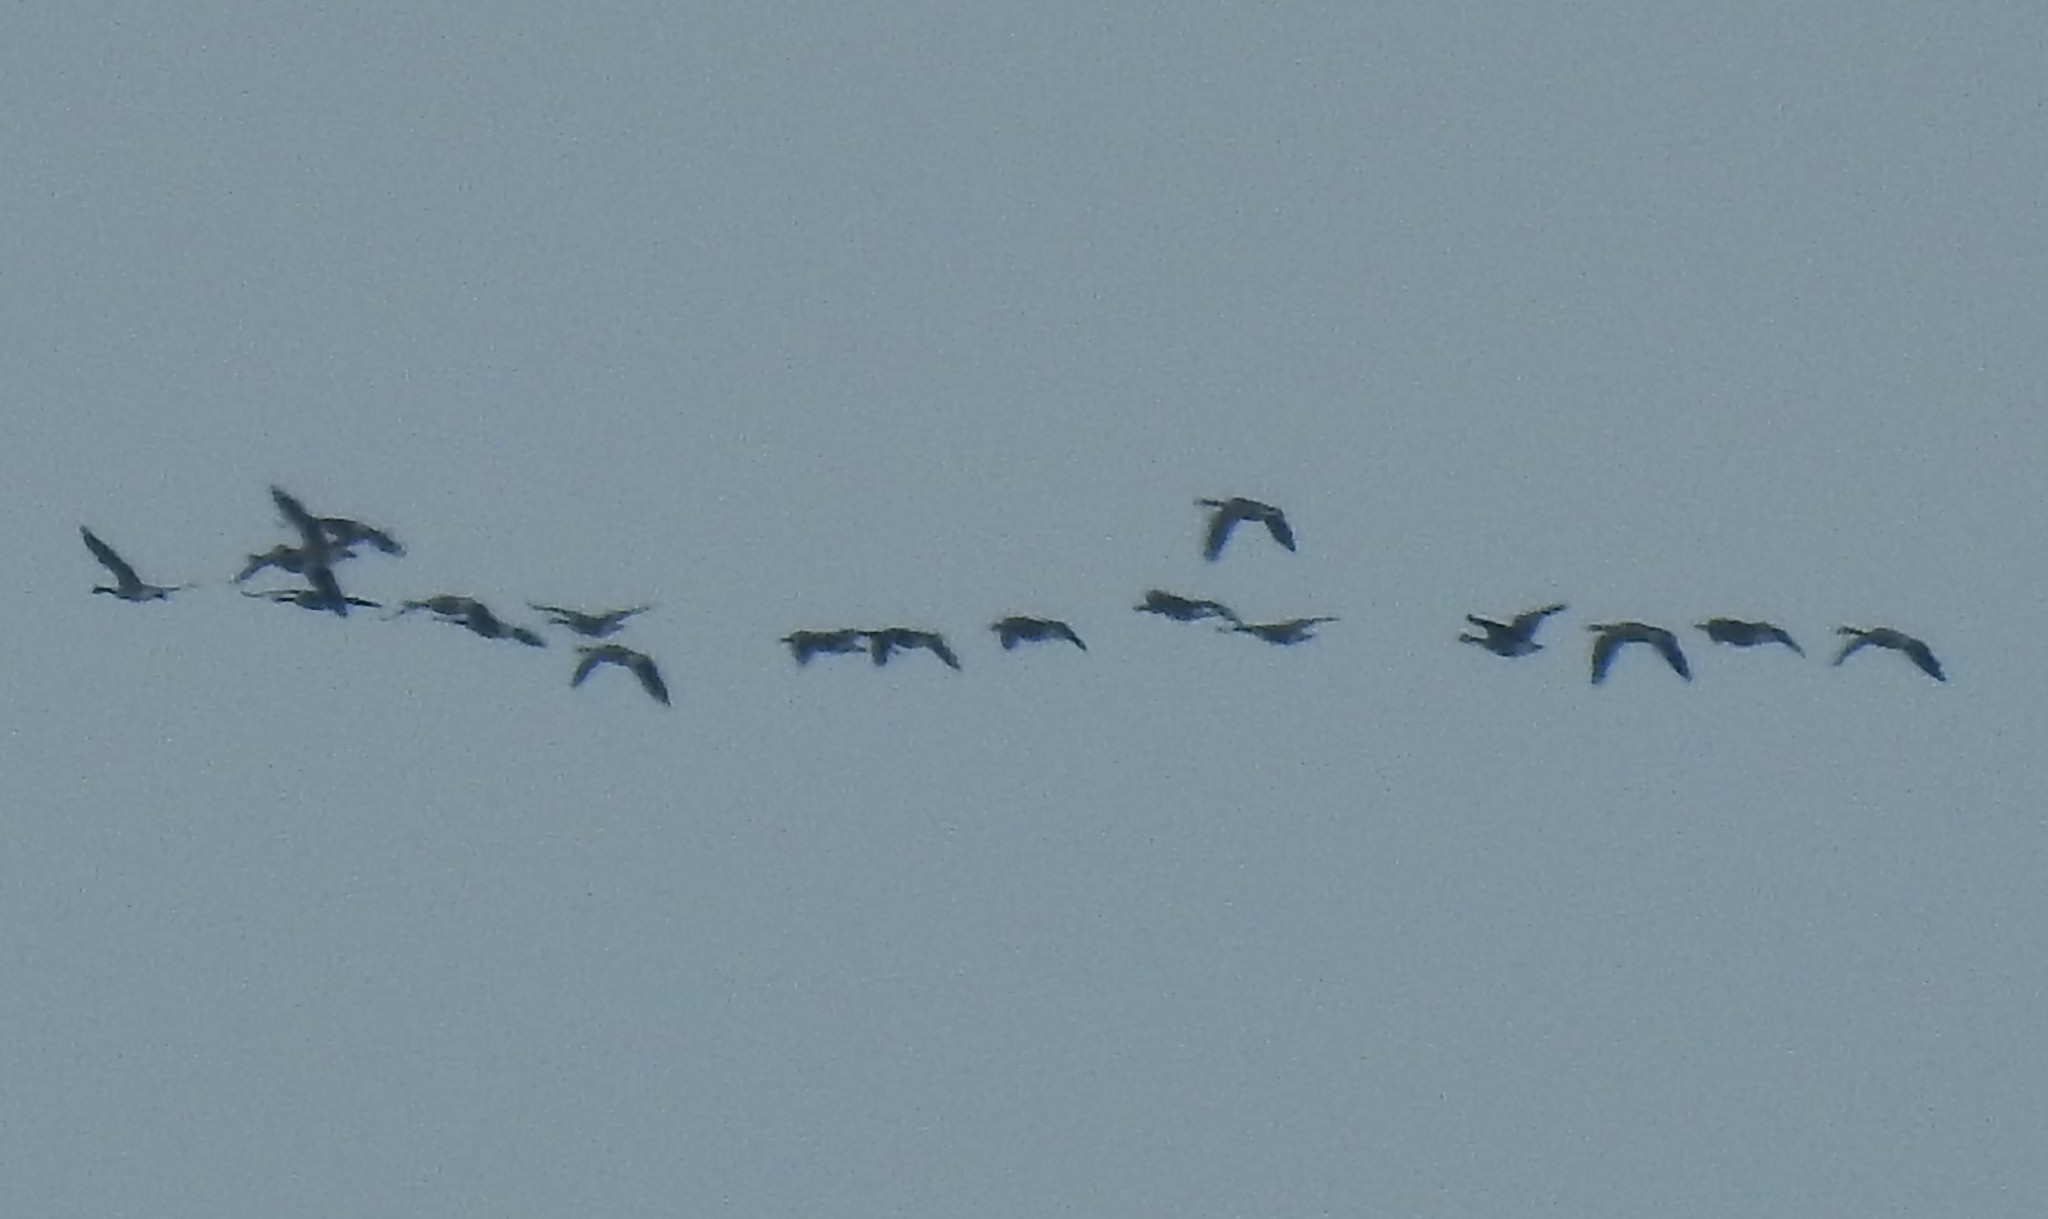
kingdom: Animalia
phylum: Chordata
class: Aves
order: Anseriformes
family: Anatidae
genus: Branta
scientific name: Branta canadensis
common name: Canada goose
